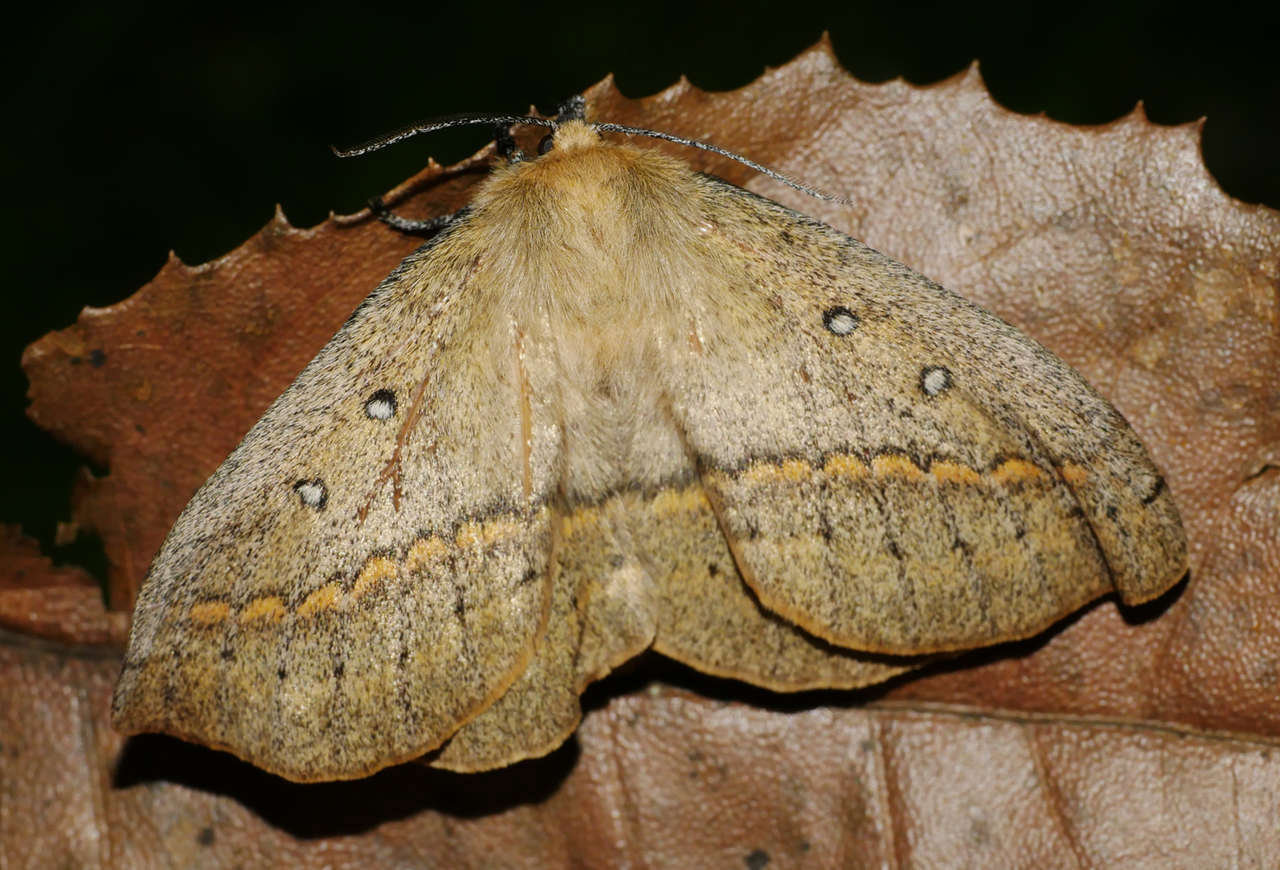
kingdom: Animalia
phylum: Arthropoda
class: Insecta
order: Lepidoptera
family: Anthelidae
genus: Anthela
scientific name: Anthela nicothoe
